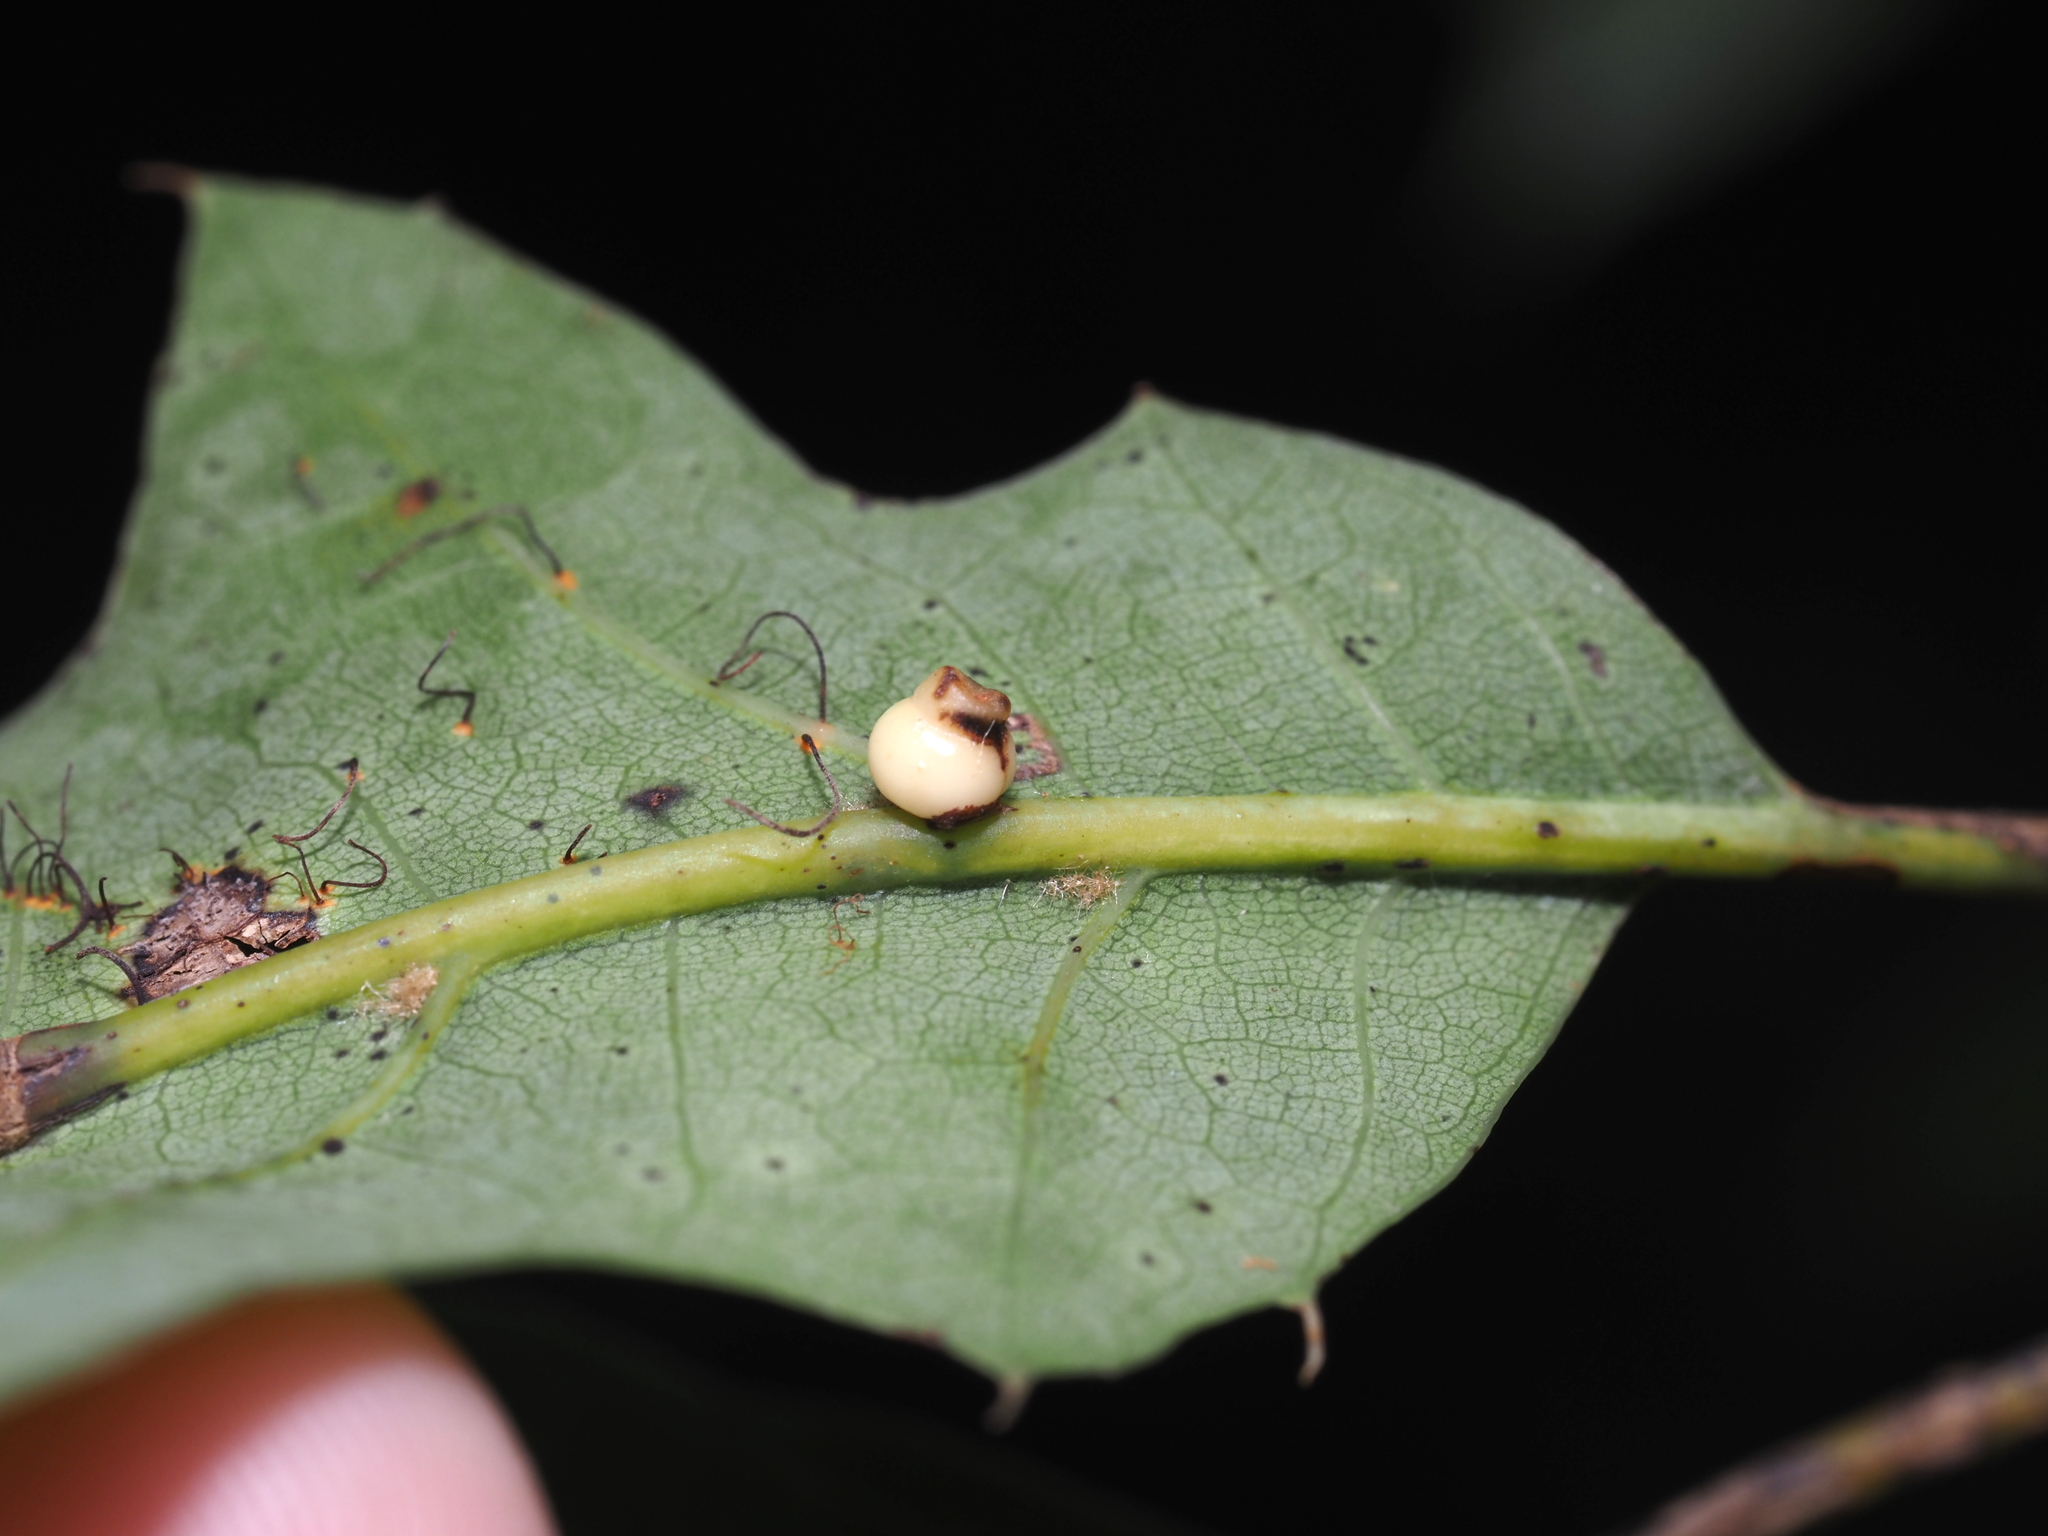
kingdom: Animalia
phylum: Arthropoda
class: Insecta
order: Hymenoptera
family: Cynipidae
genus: Kokkocynips
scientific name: Kokkocynips rileyi
